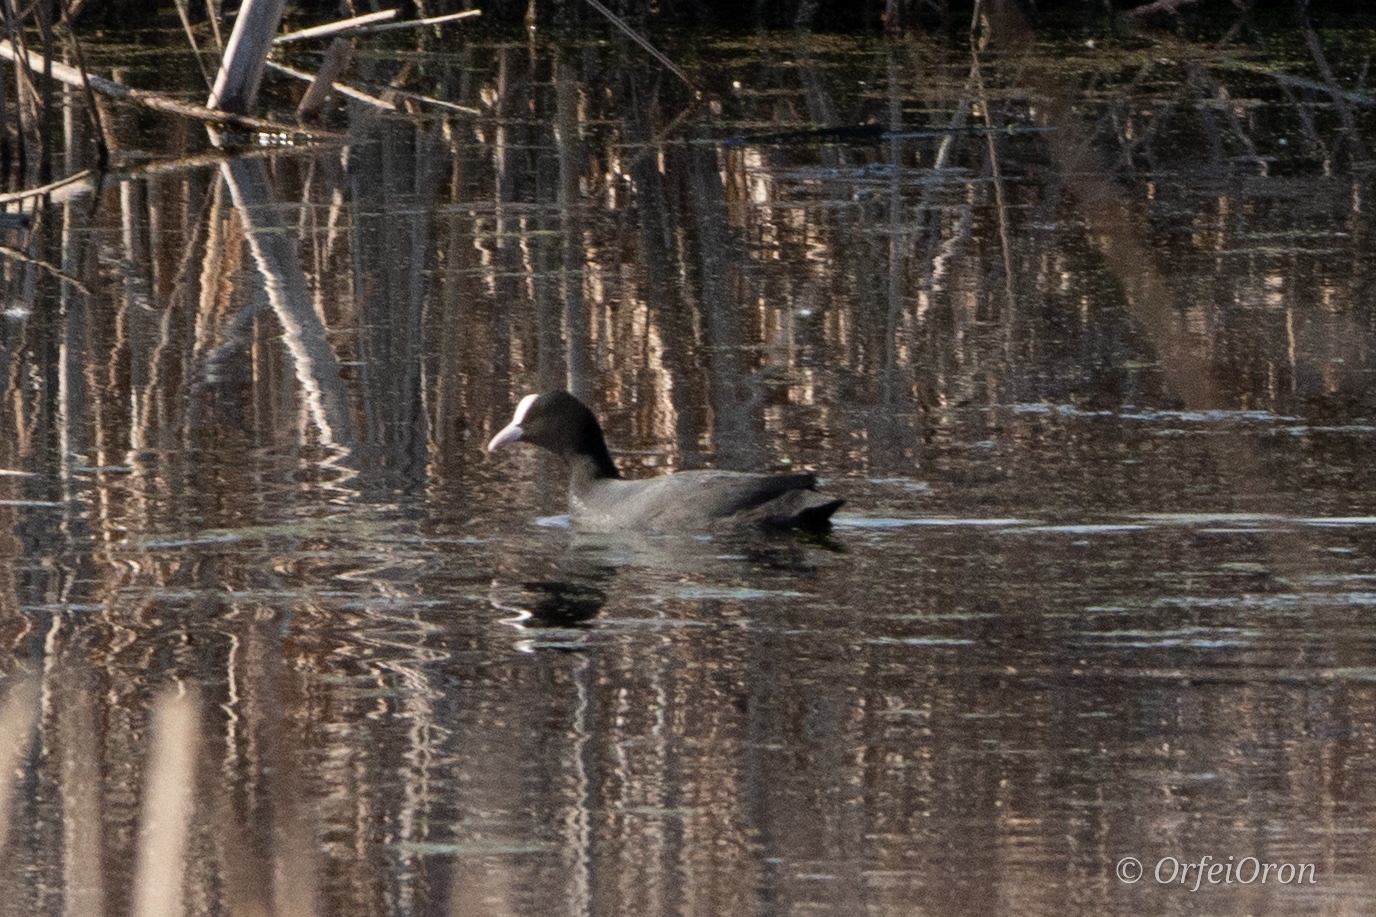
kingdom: Animalia
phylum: Chordata
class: Aves
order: Gruiformes
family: Rallidae
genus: Fulica
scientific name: Fulica atra
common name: Eurasian coot
